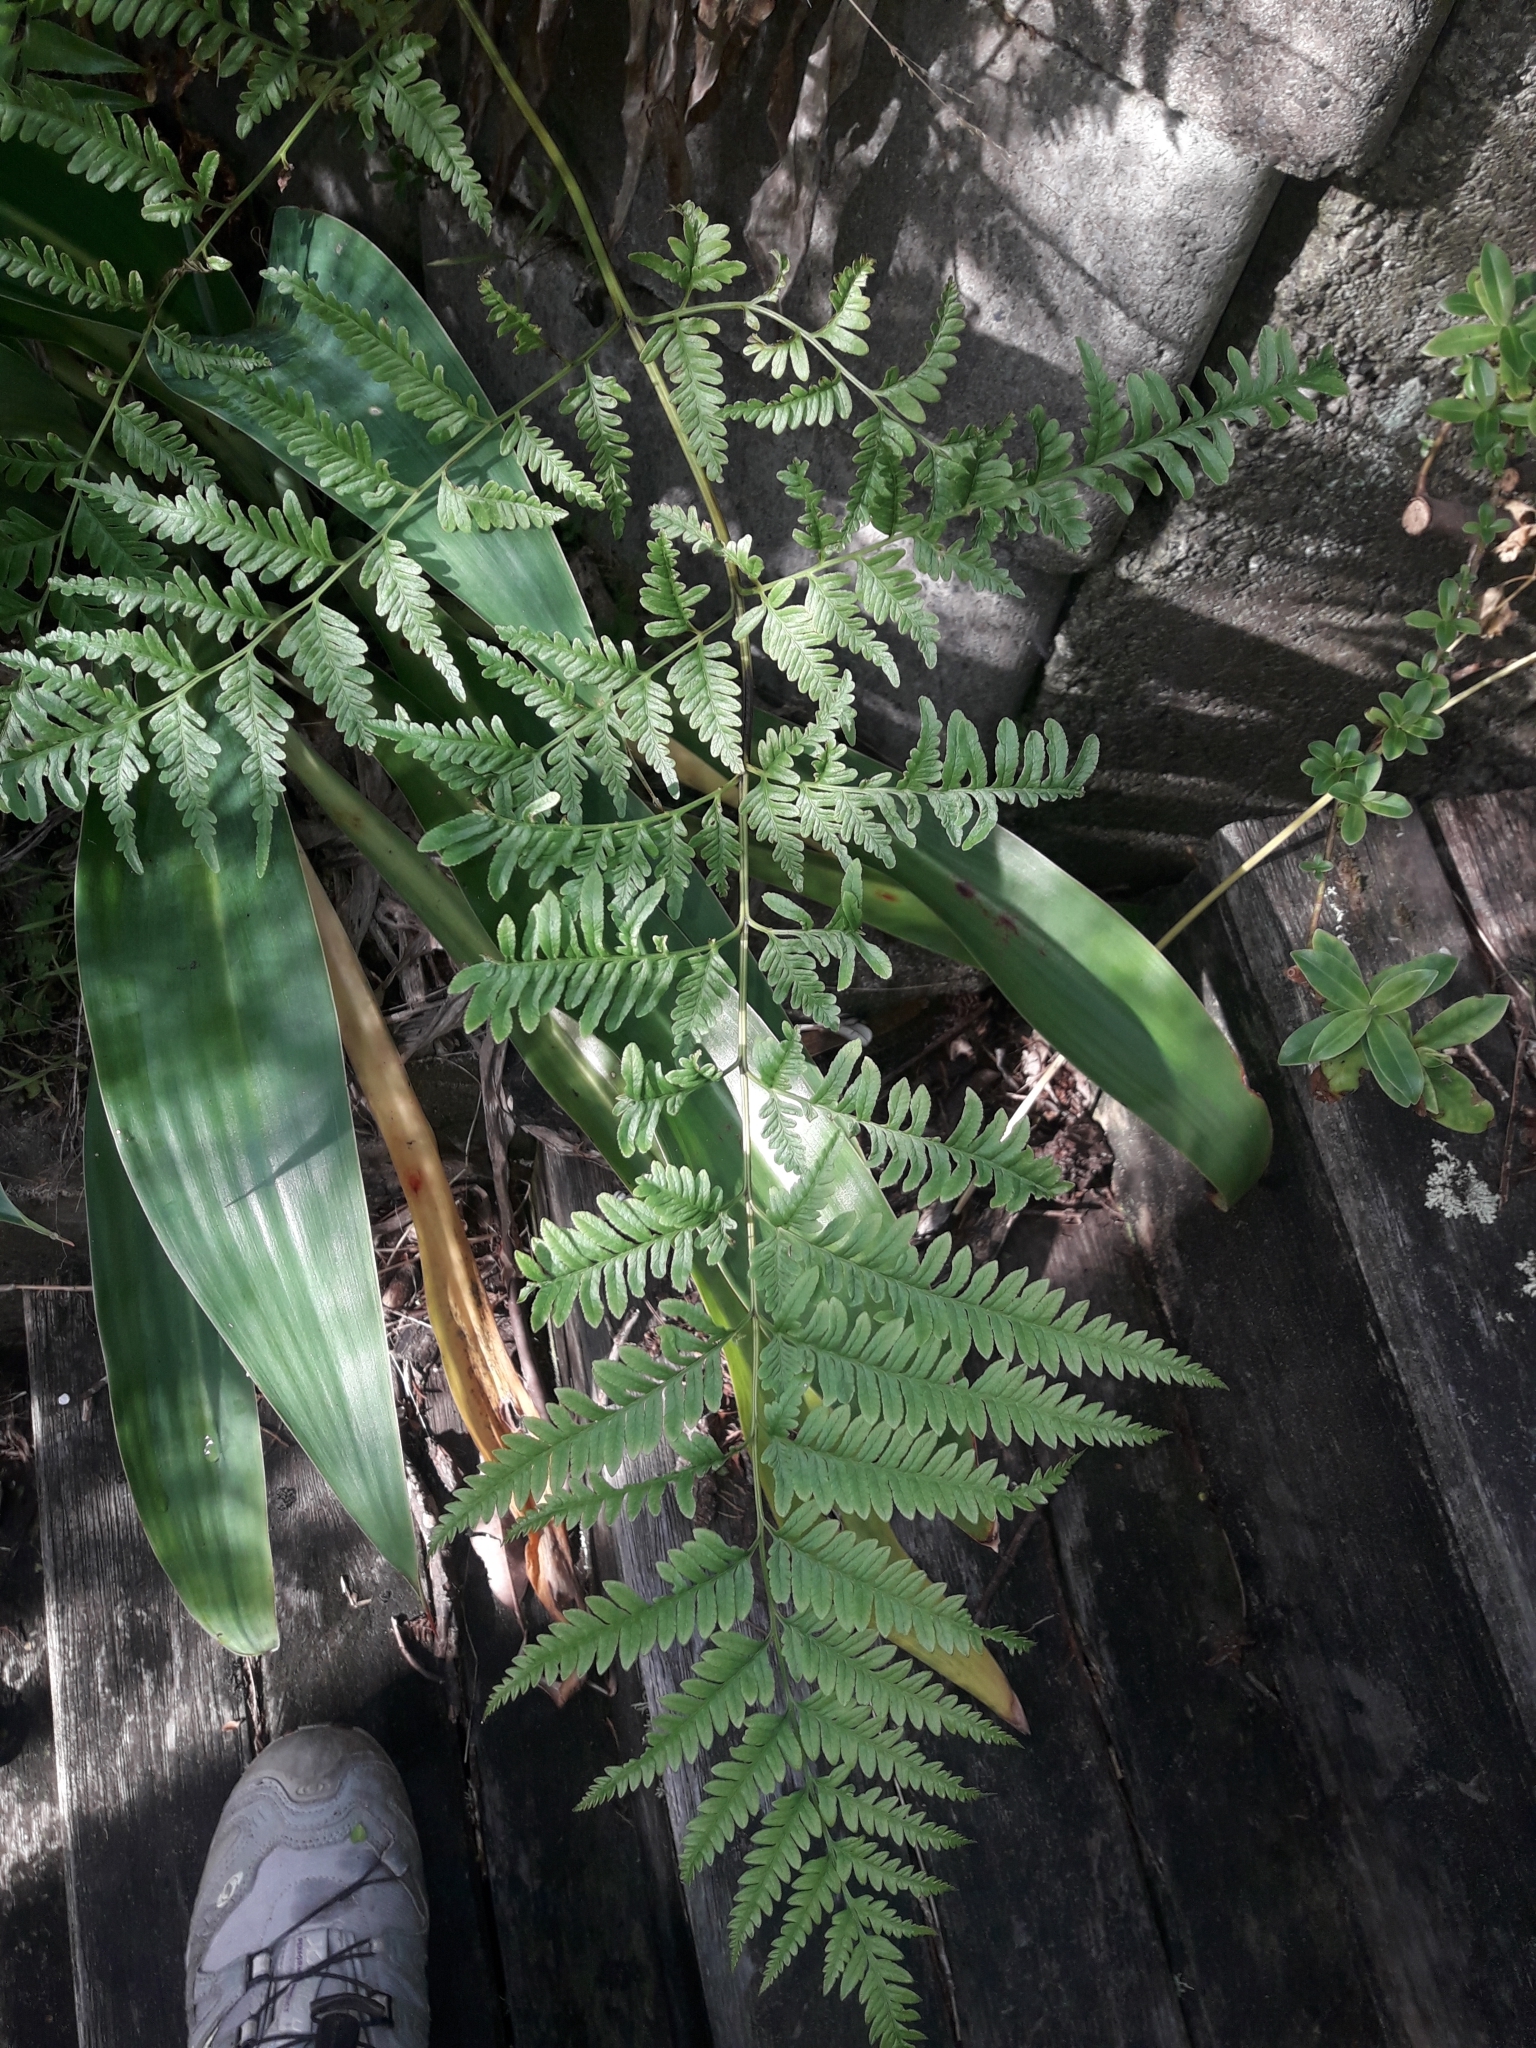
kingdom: Plantae
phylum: Tracheophyta
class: Polypodiopsida
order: Polypodiales
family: Pteridaceae
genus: Pteris
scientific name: Pteris tremula
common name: Australian brake
